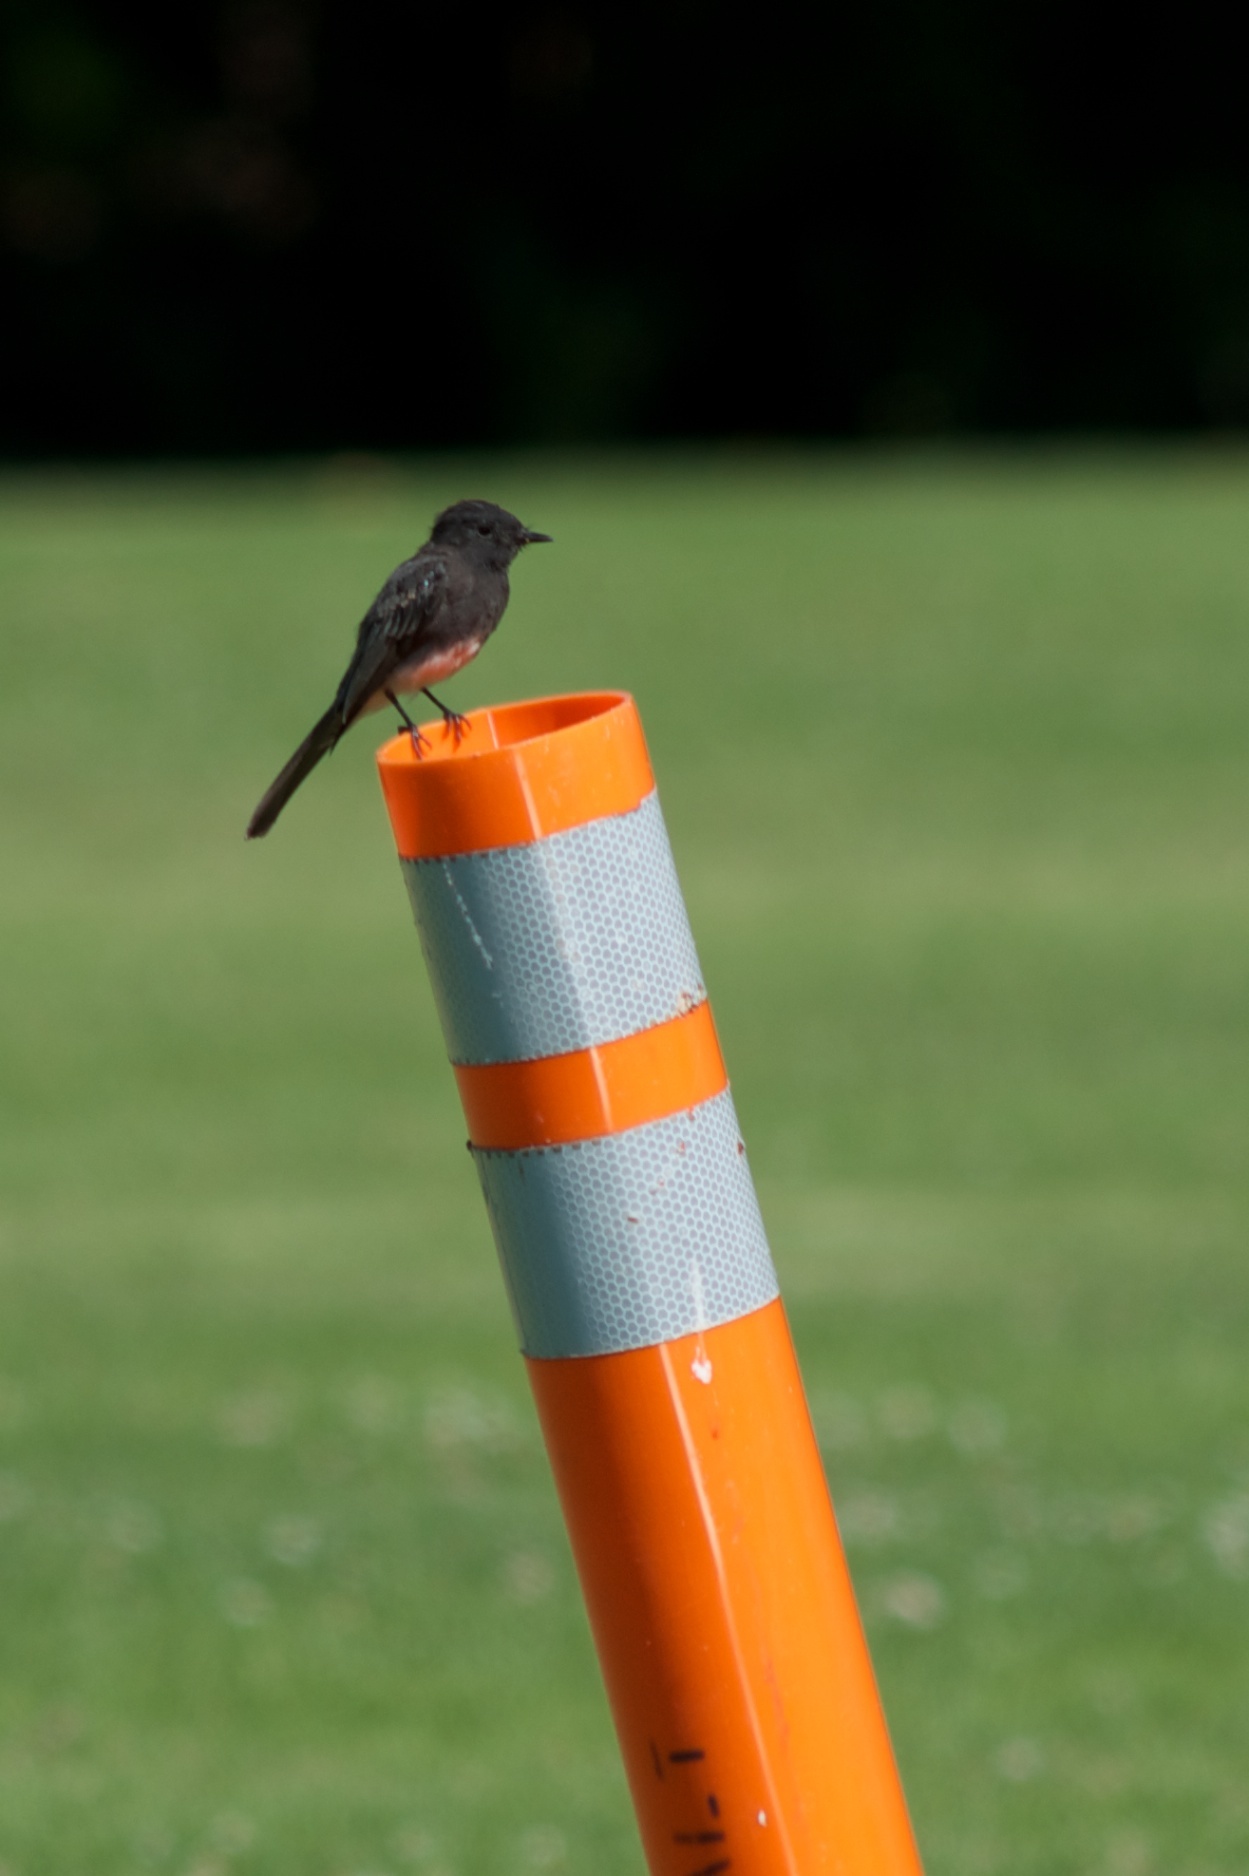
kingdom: Animalia
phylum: Chordata
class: Aves
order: Passeriformes
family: Tyrannidae
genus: Sayornis
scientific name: Sayornis nigricans
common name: Black phoebe
